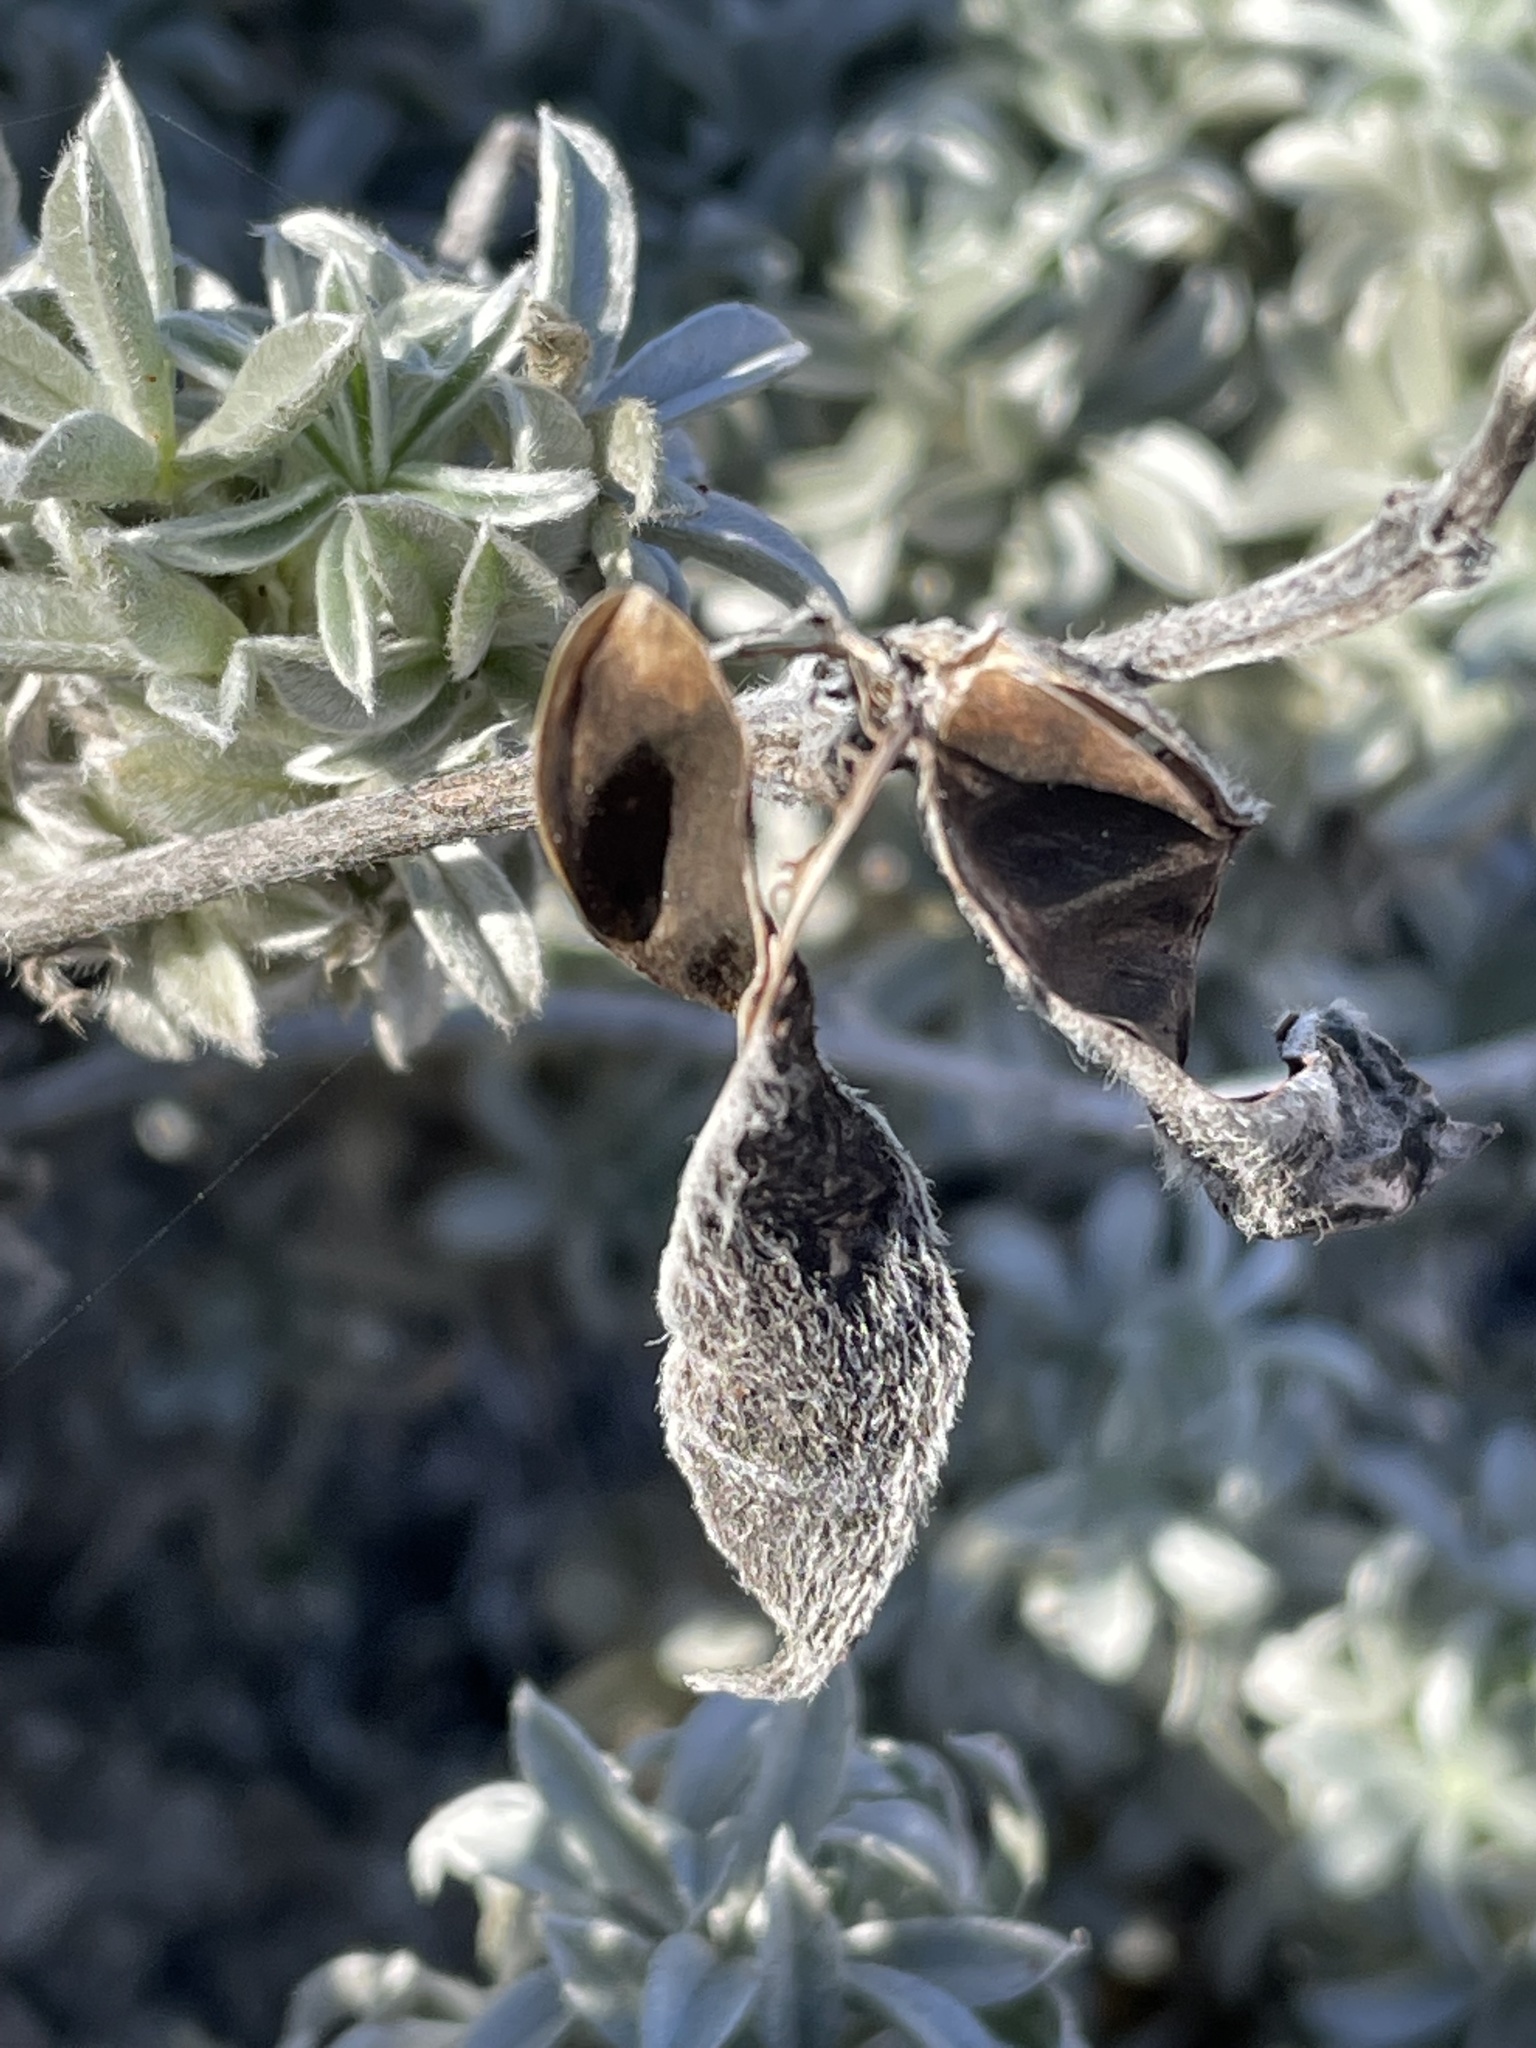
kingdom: Plantae
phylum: Tracheophyta
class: Magnoliopsida
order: Fabales
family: Fabaceae
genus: Lupinus
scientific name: Lupinus chamissonis
